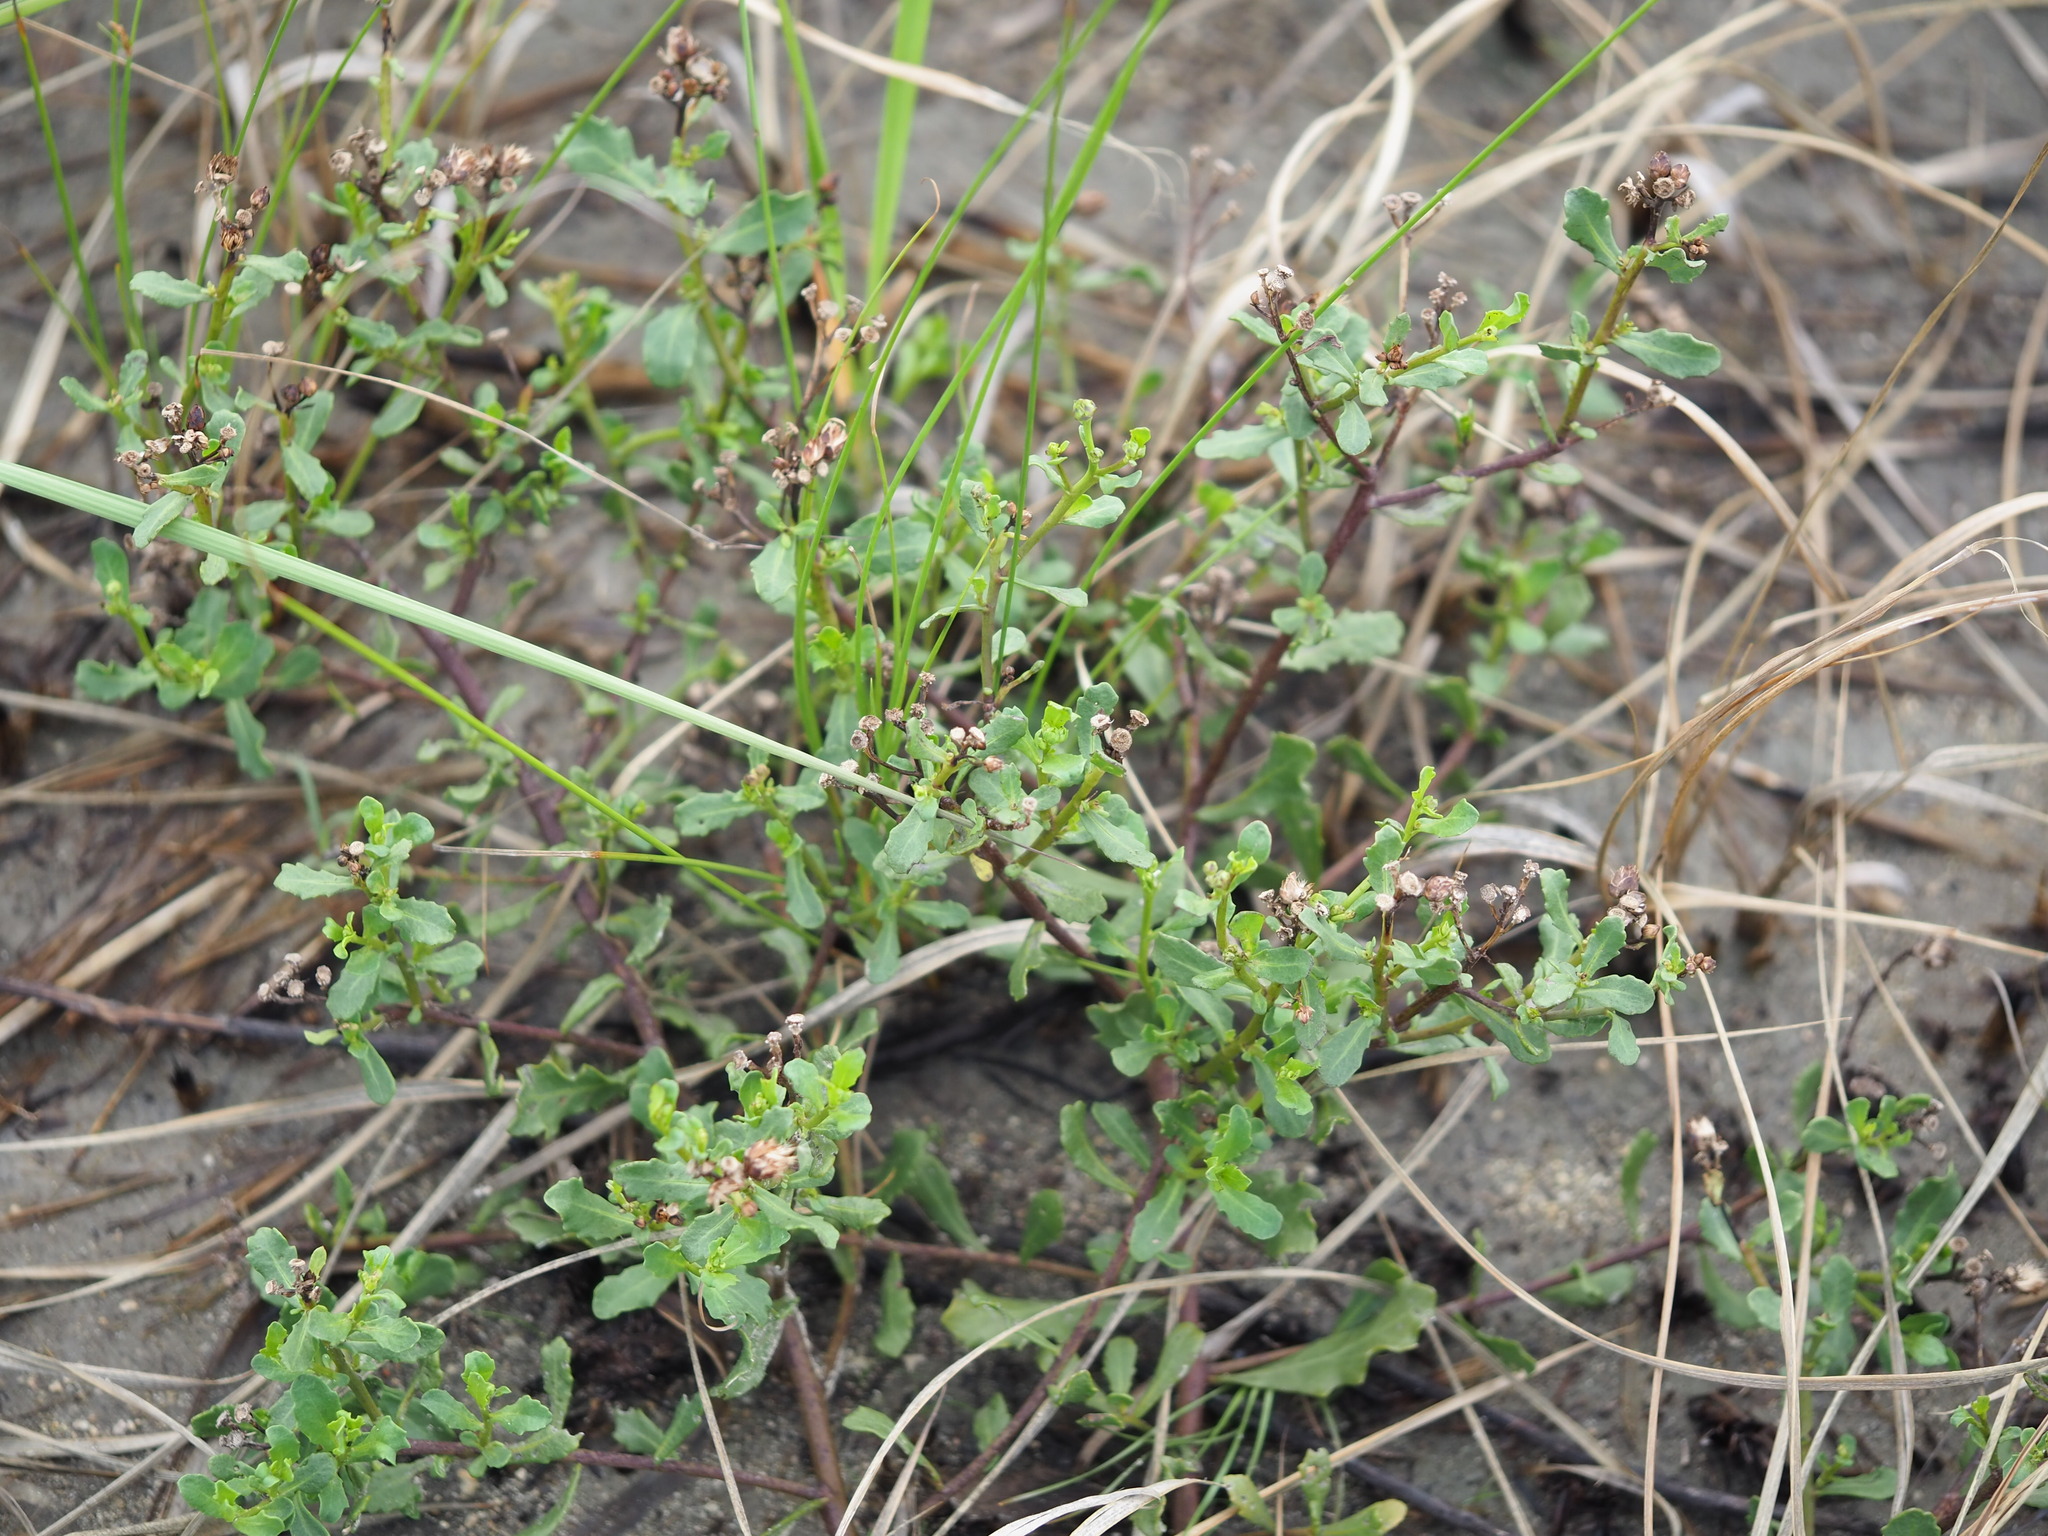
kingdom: Plantae
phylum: Tracheophyta
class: Magnoliopsida
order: Asterales
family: Asteraceae
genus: Pluchea
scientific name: Pluchea pteropoda
